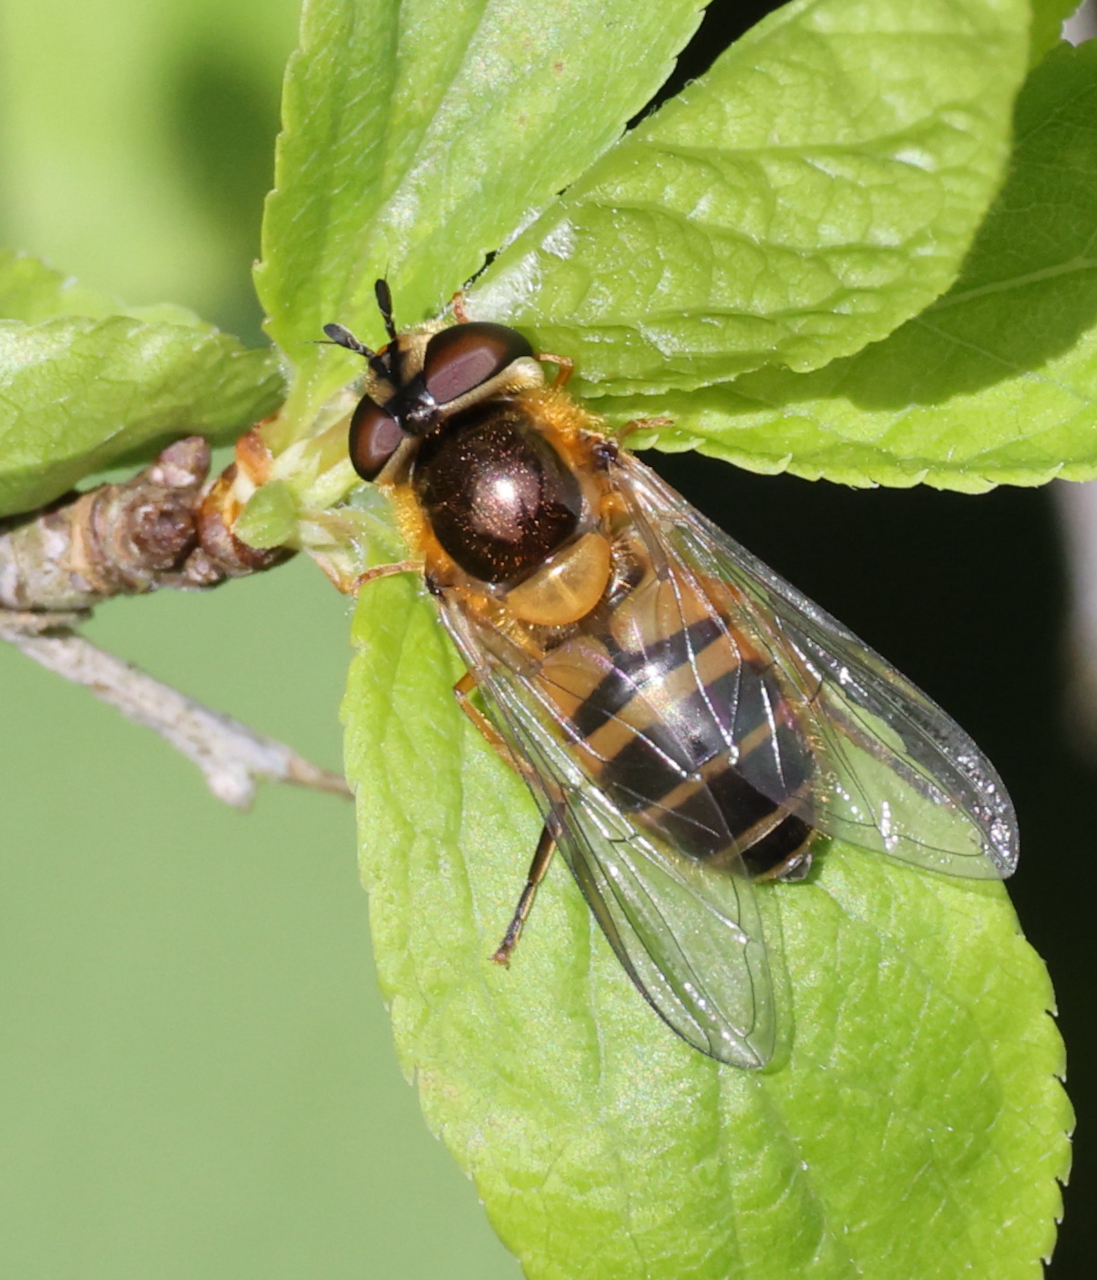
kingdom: Animalia
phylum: Arthropoda
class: Insecta
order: Diptera
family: Syrphidae
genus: Epistrophe
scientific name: Epistrophe eligans
